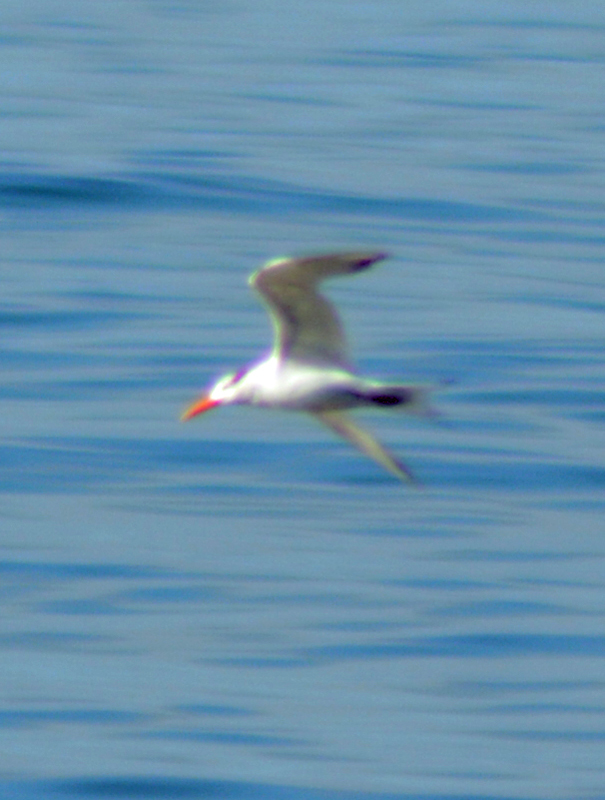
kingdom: Animalia
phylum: Chordata
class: Aves
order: Charadriiformes
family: Laridae
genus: Thalasseus
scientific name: Thalasseus maximus
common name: Royal tern
